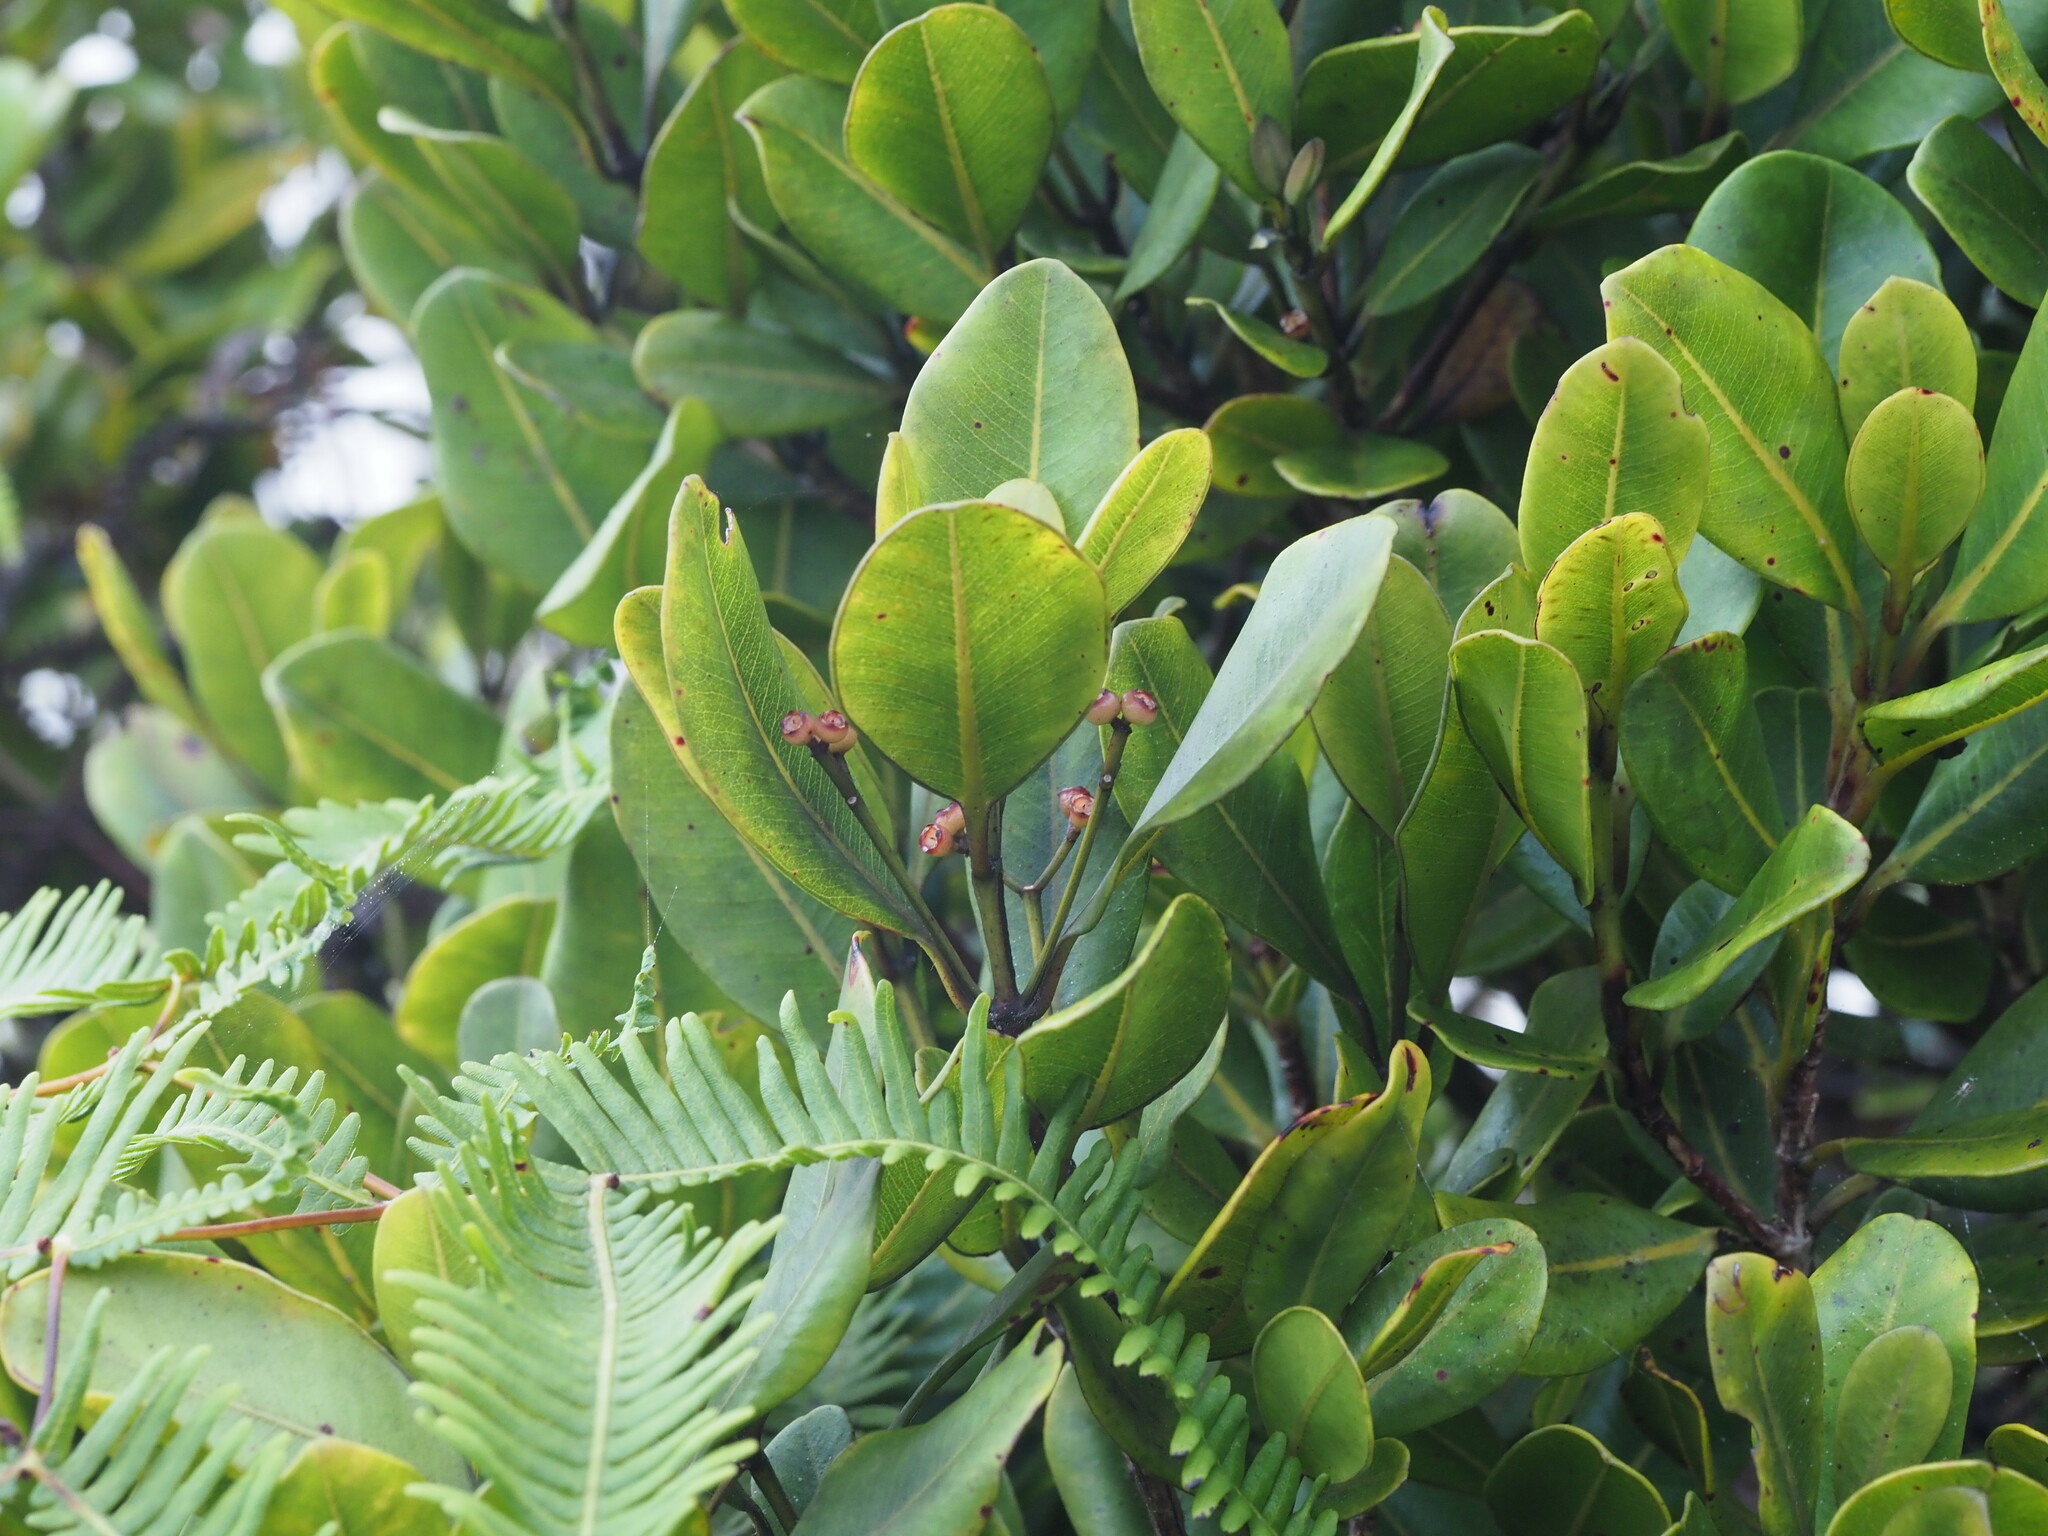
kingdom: Plantae
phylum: Tracheophyta
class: Magnoliopsida
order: Myrtales
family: Myrtaceae
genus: Syzygium
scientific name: Syzygium sandwicense
